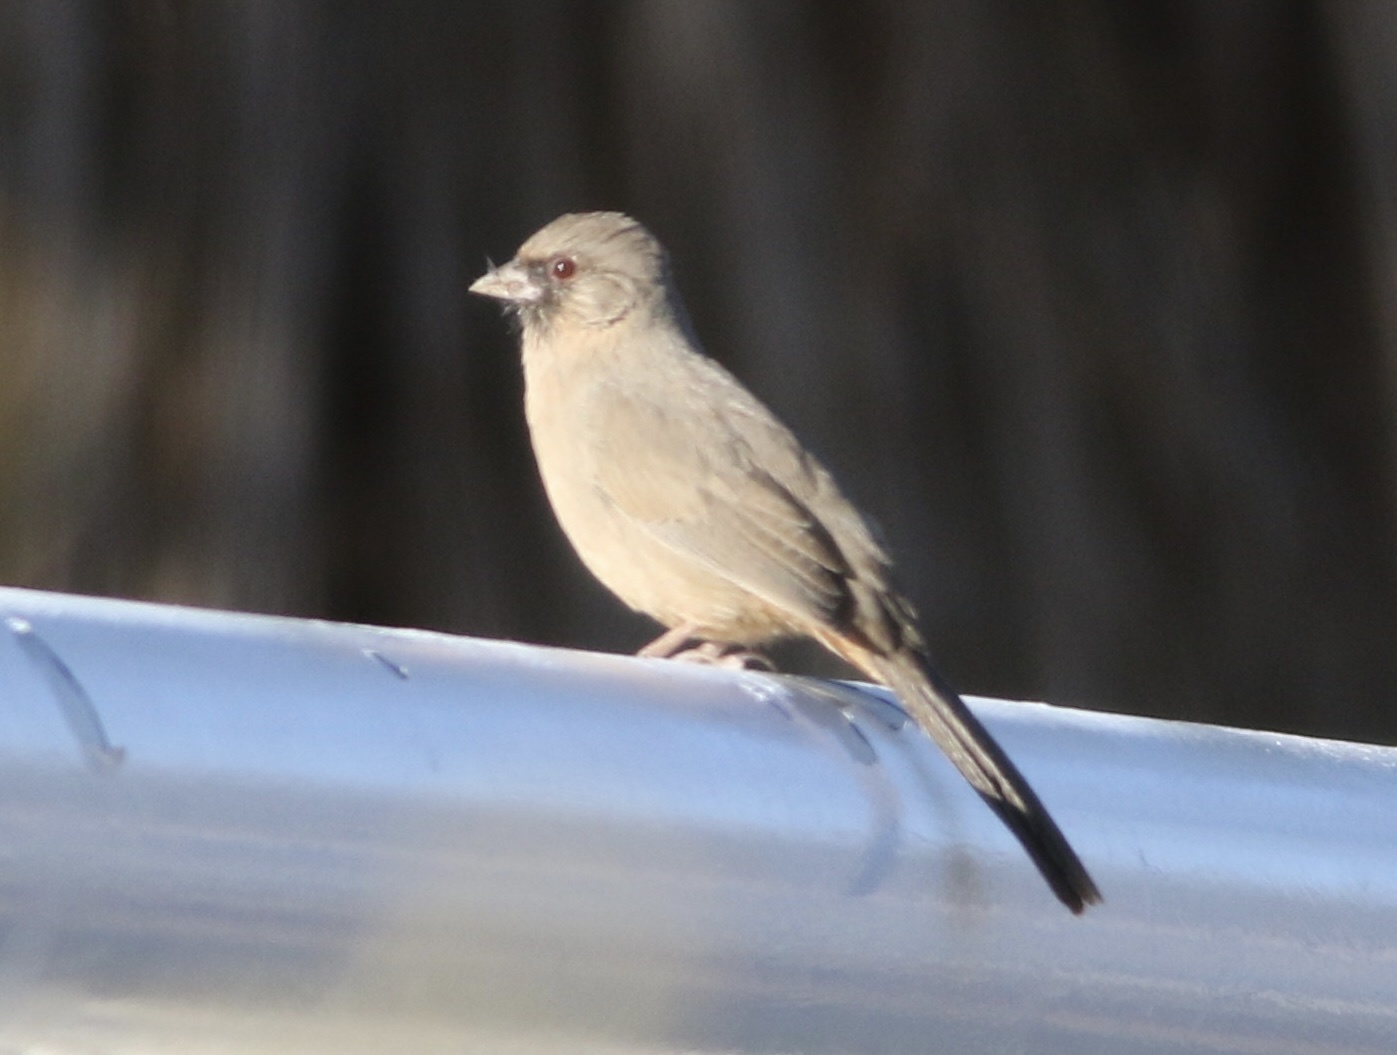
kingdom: Animalia
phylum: Chordata
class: Aves
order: Passeriformes
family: Passerellidae
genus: Melozone
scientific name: Melozone aberti
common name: Abert's towhee
